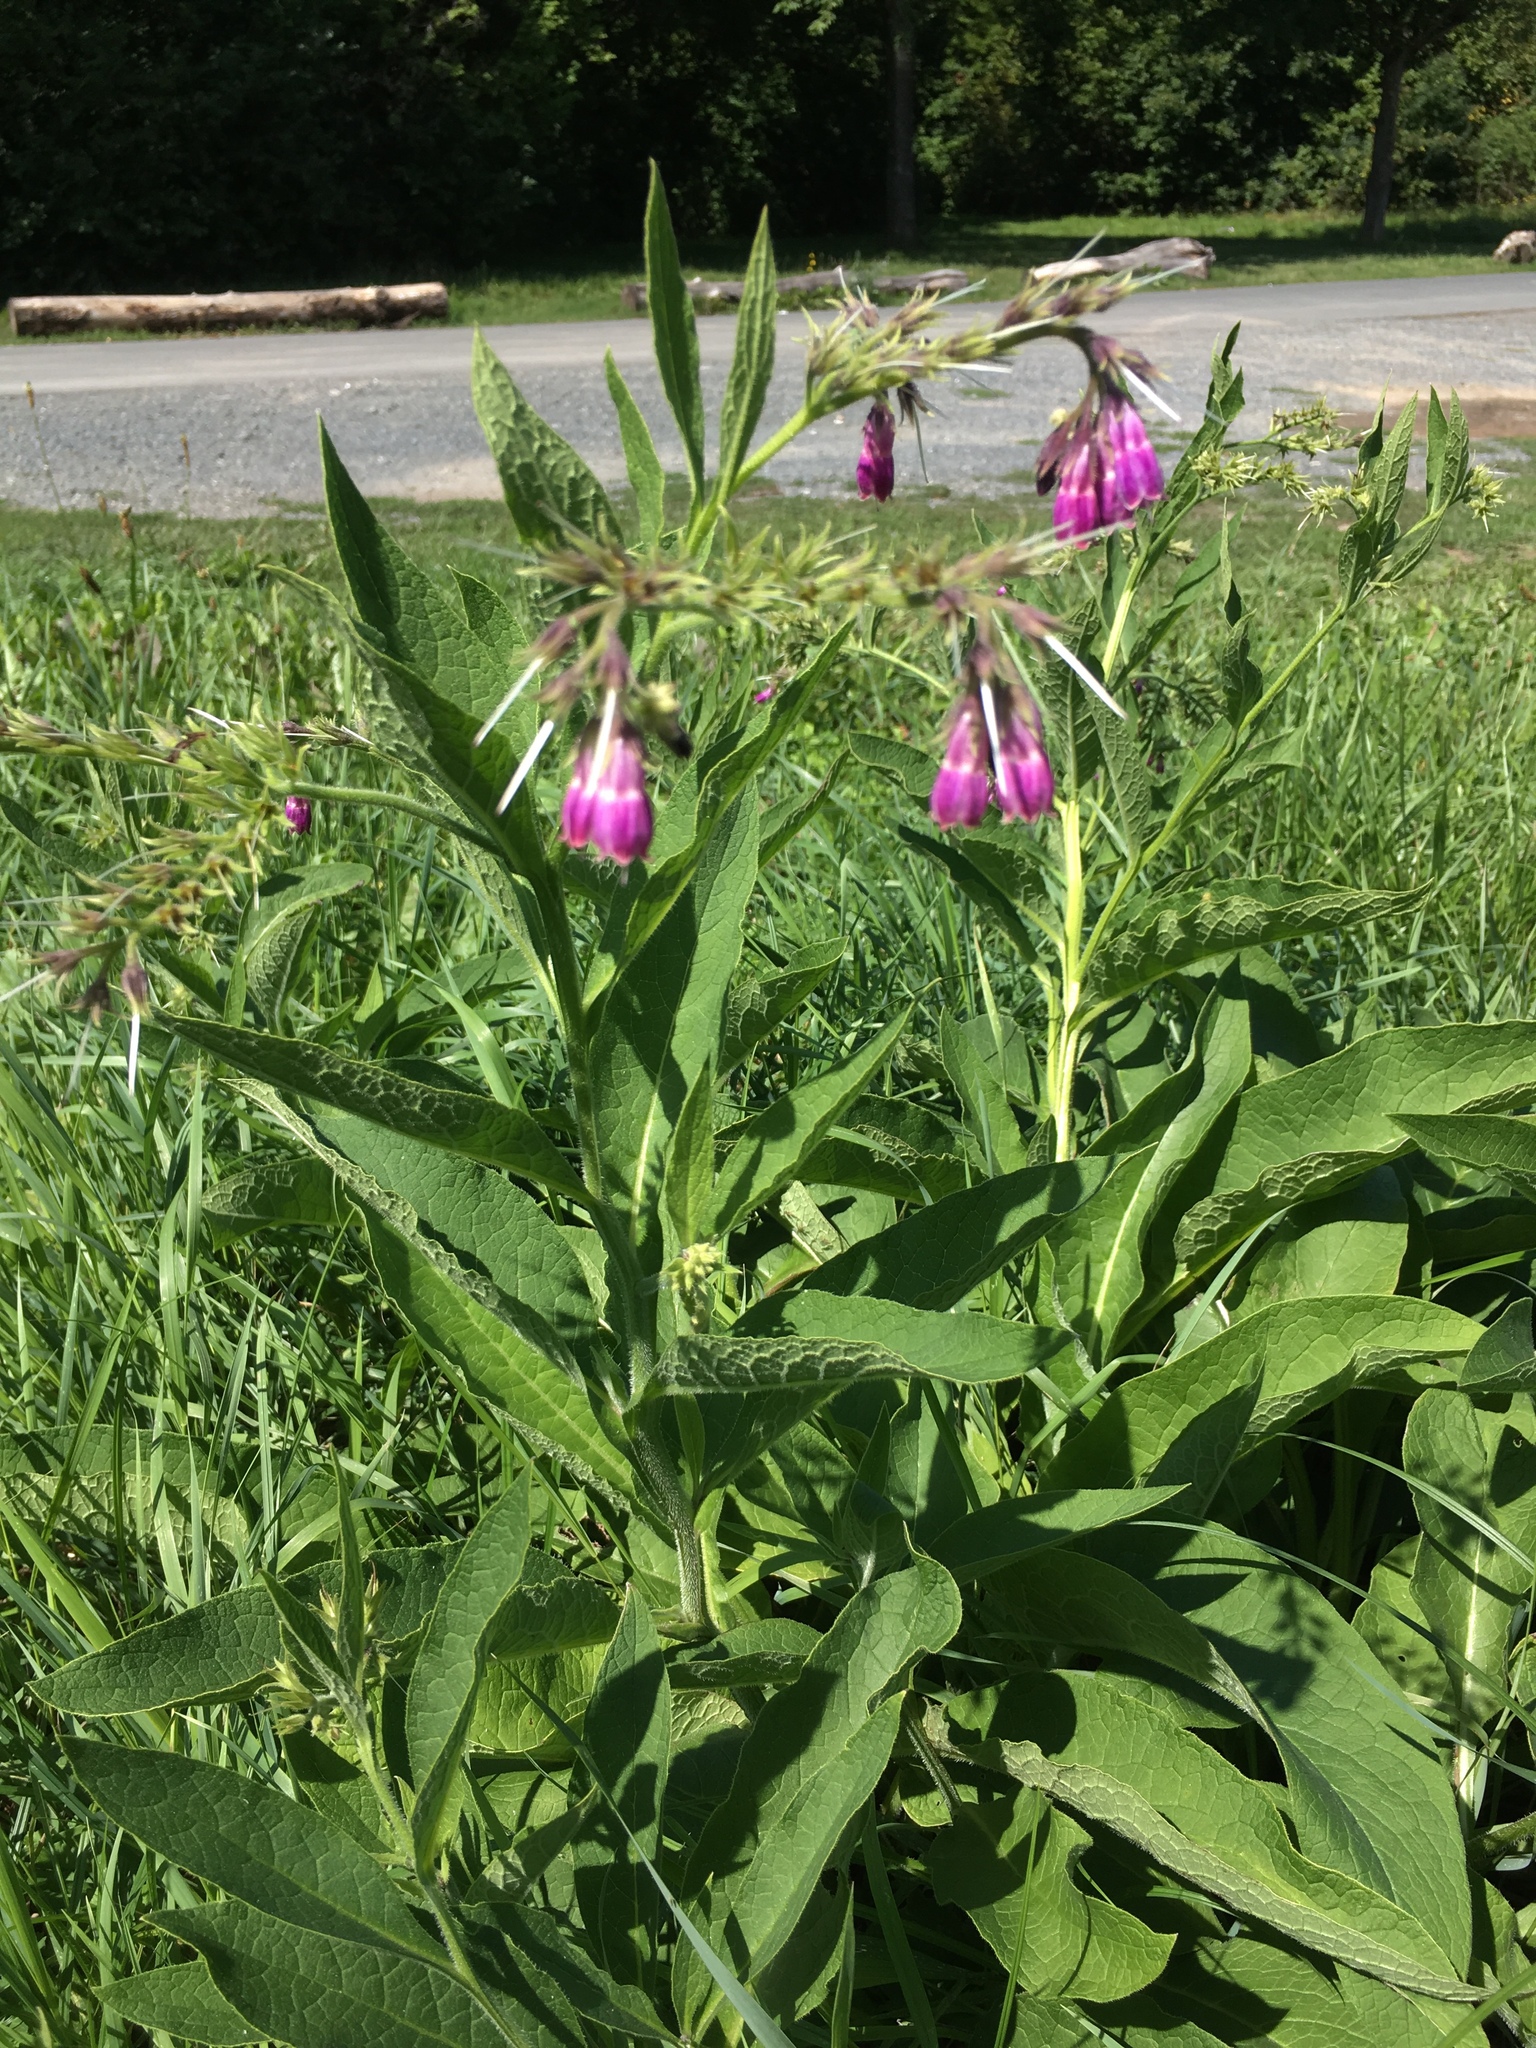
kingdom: Plantae
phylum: Tracheophyta
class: Magnoliopsida
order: Boraginales
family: Boraginaceae
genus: Symphytum
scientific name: Symphytum officinale
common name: Common comfrey
